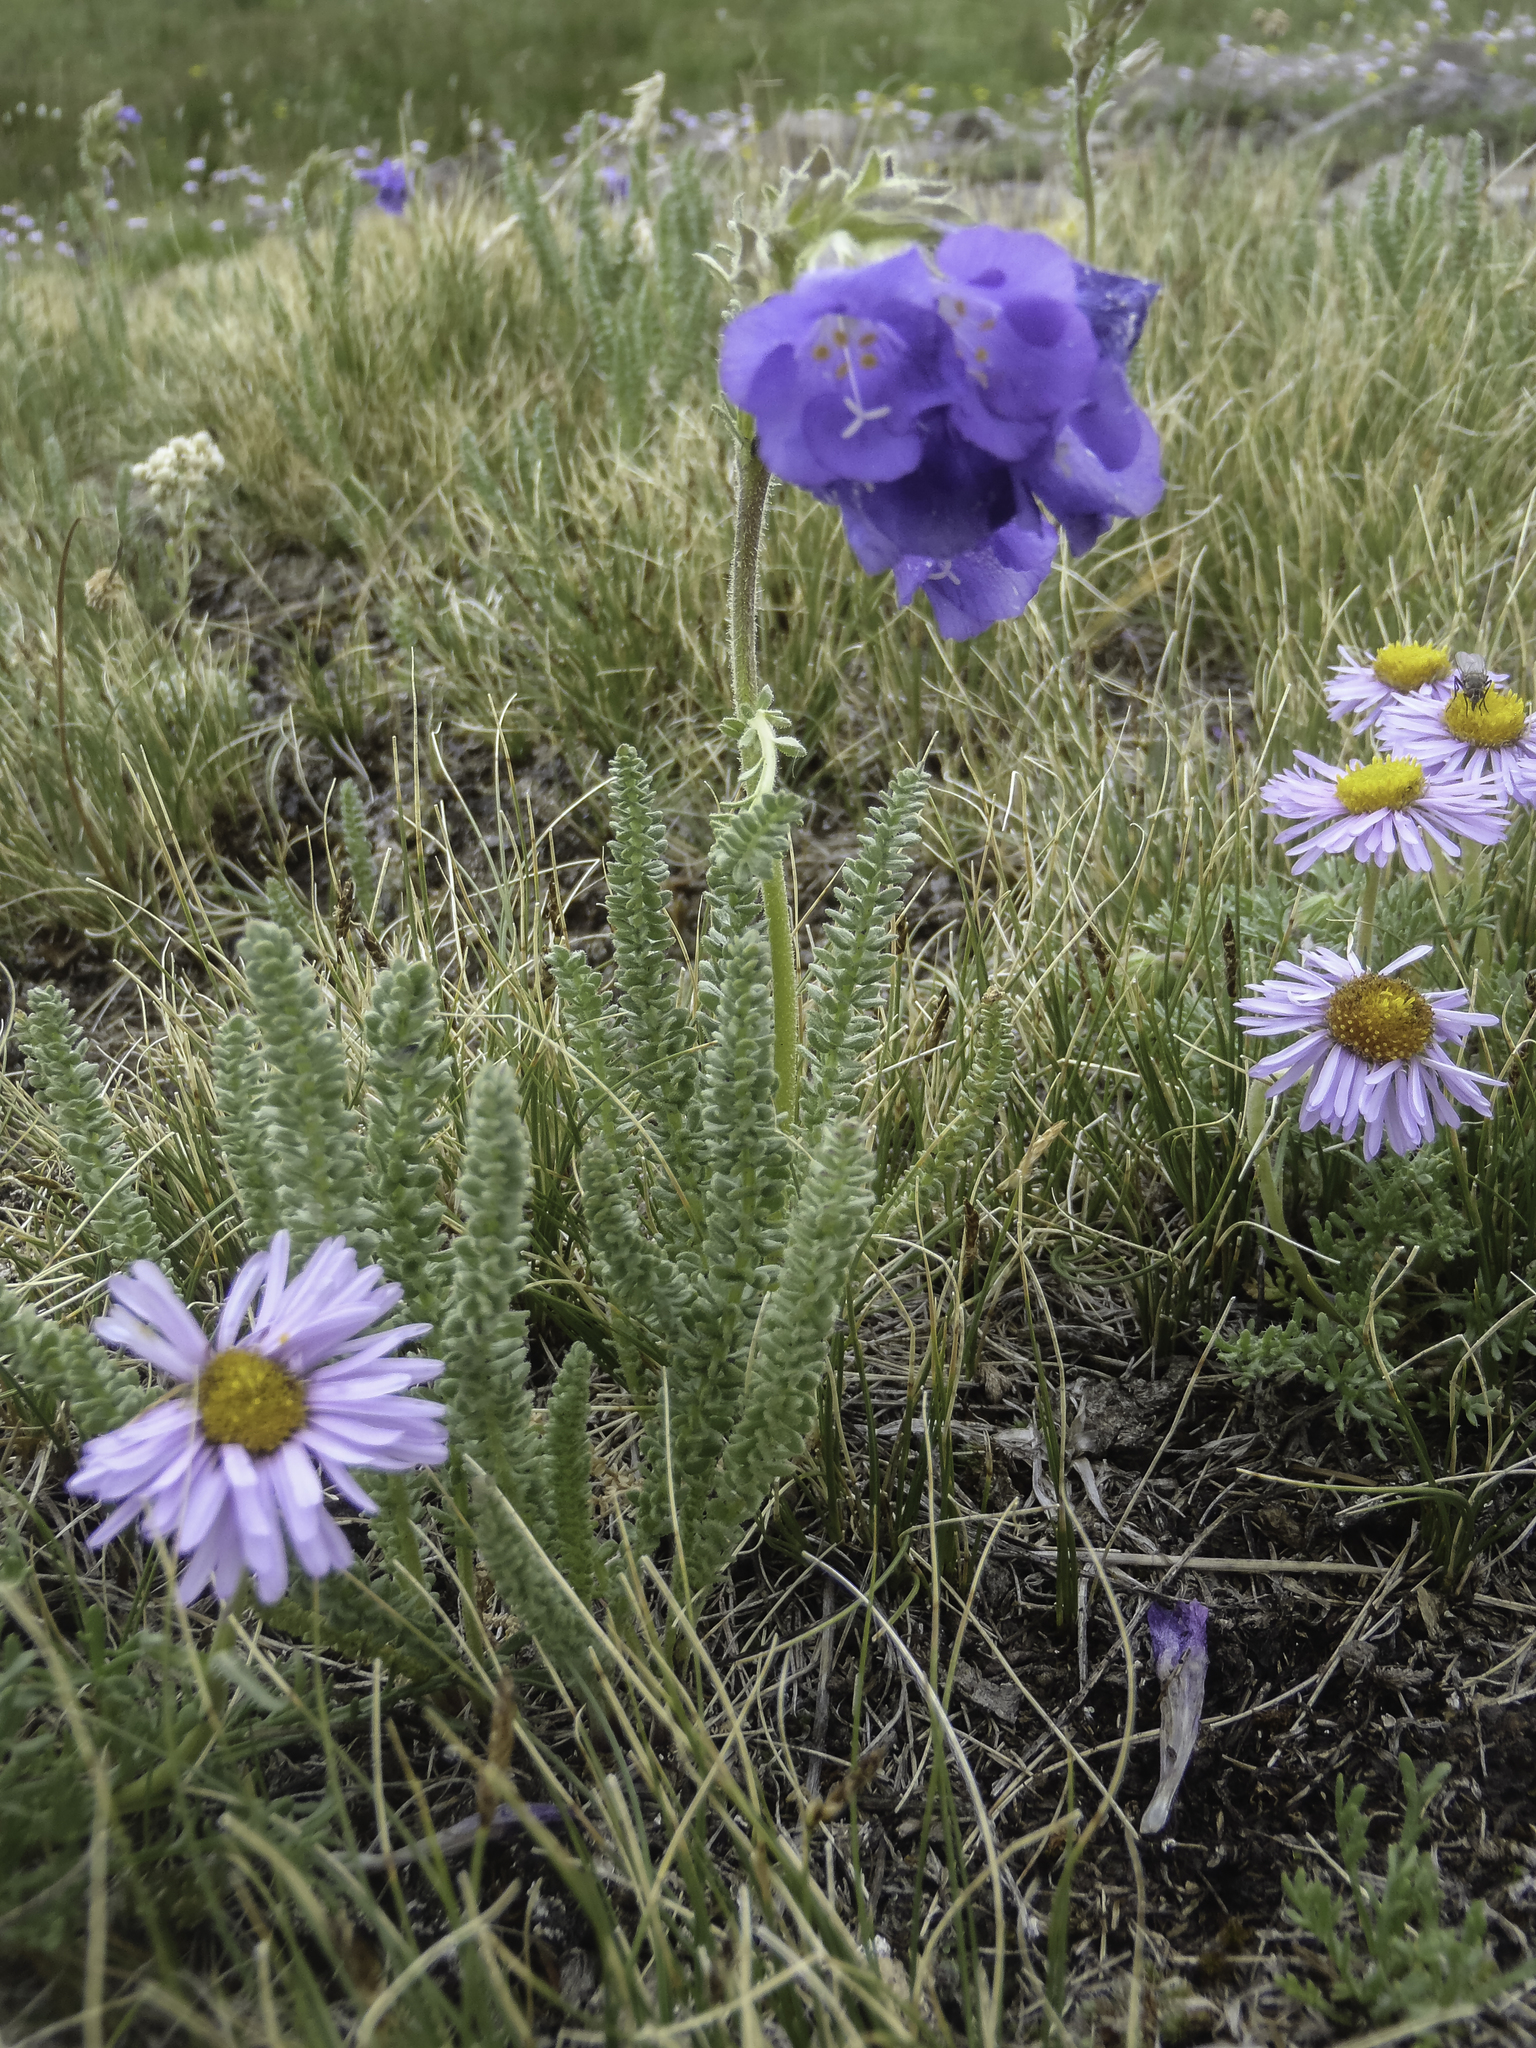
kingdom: Plantae
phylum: Tracheophyta
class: Magnoliopsida
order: Ericales
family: Polemoniaceae
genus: Polemonium
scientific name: Polemonium viscosum
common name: Skunk jacob's-ladder
